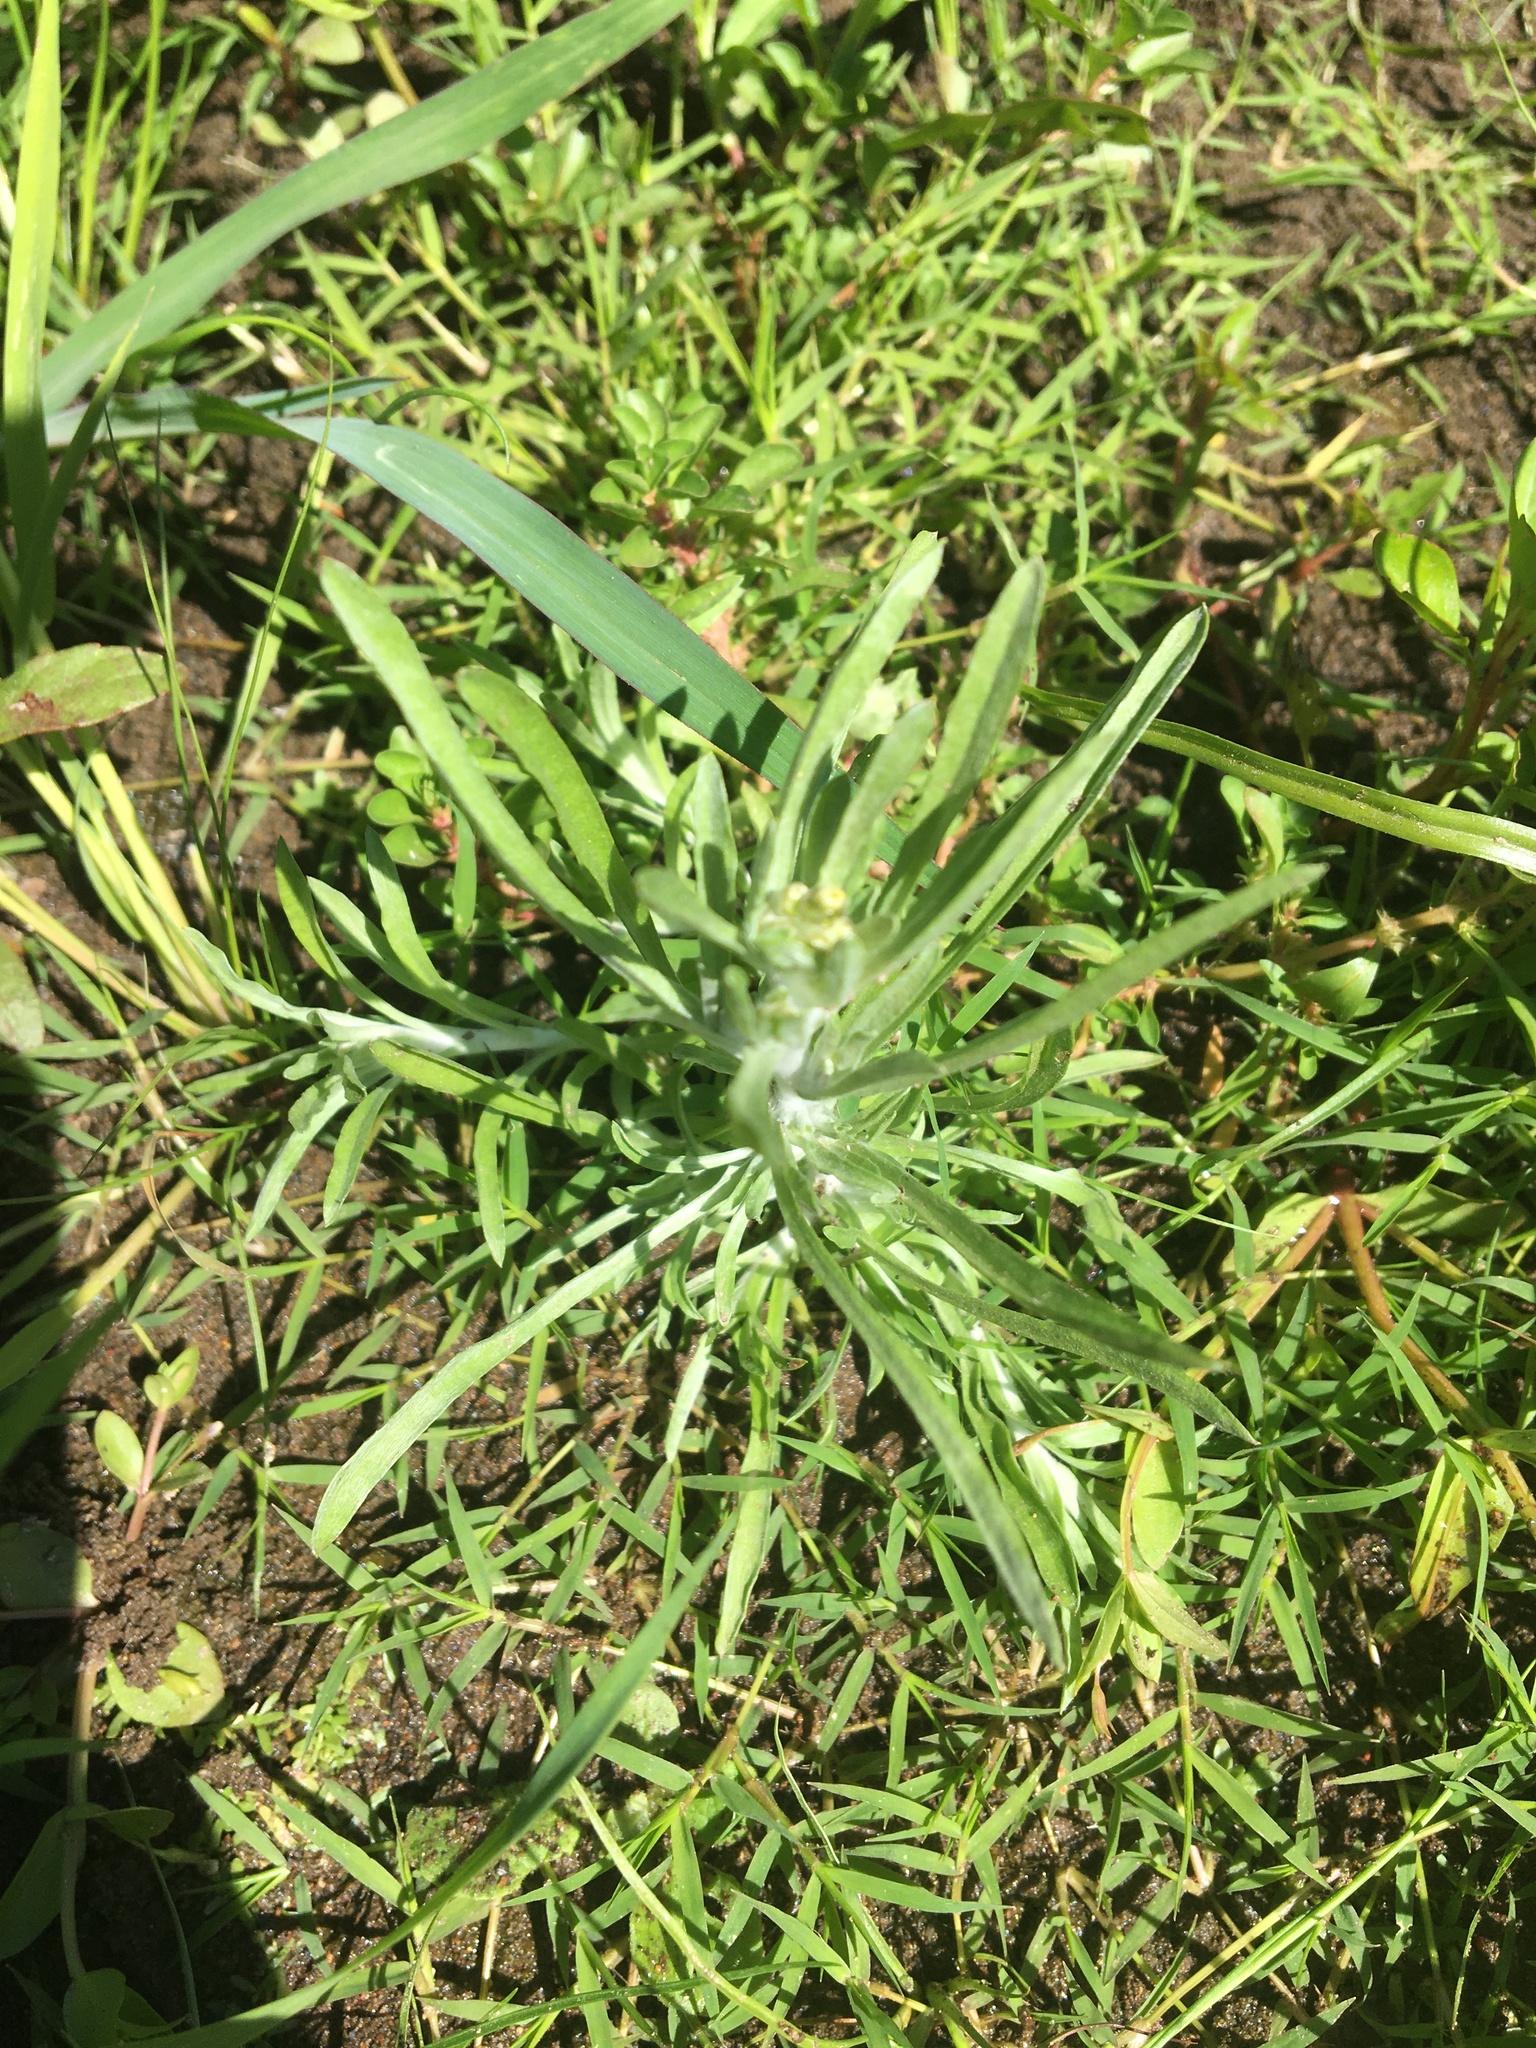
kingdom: Plantae
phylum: Tracheophyta
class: Magnoliopsida
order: Asterales
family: Asteraceae
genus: Gnaphalium
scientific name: Gnaphalium uliginosum
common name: Marsh cudweed
